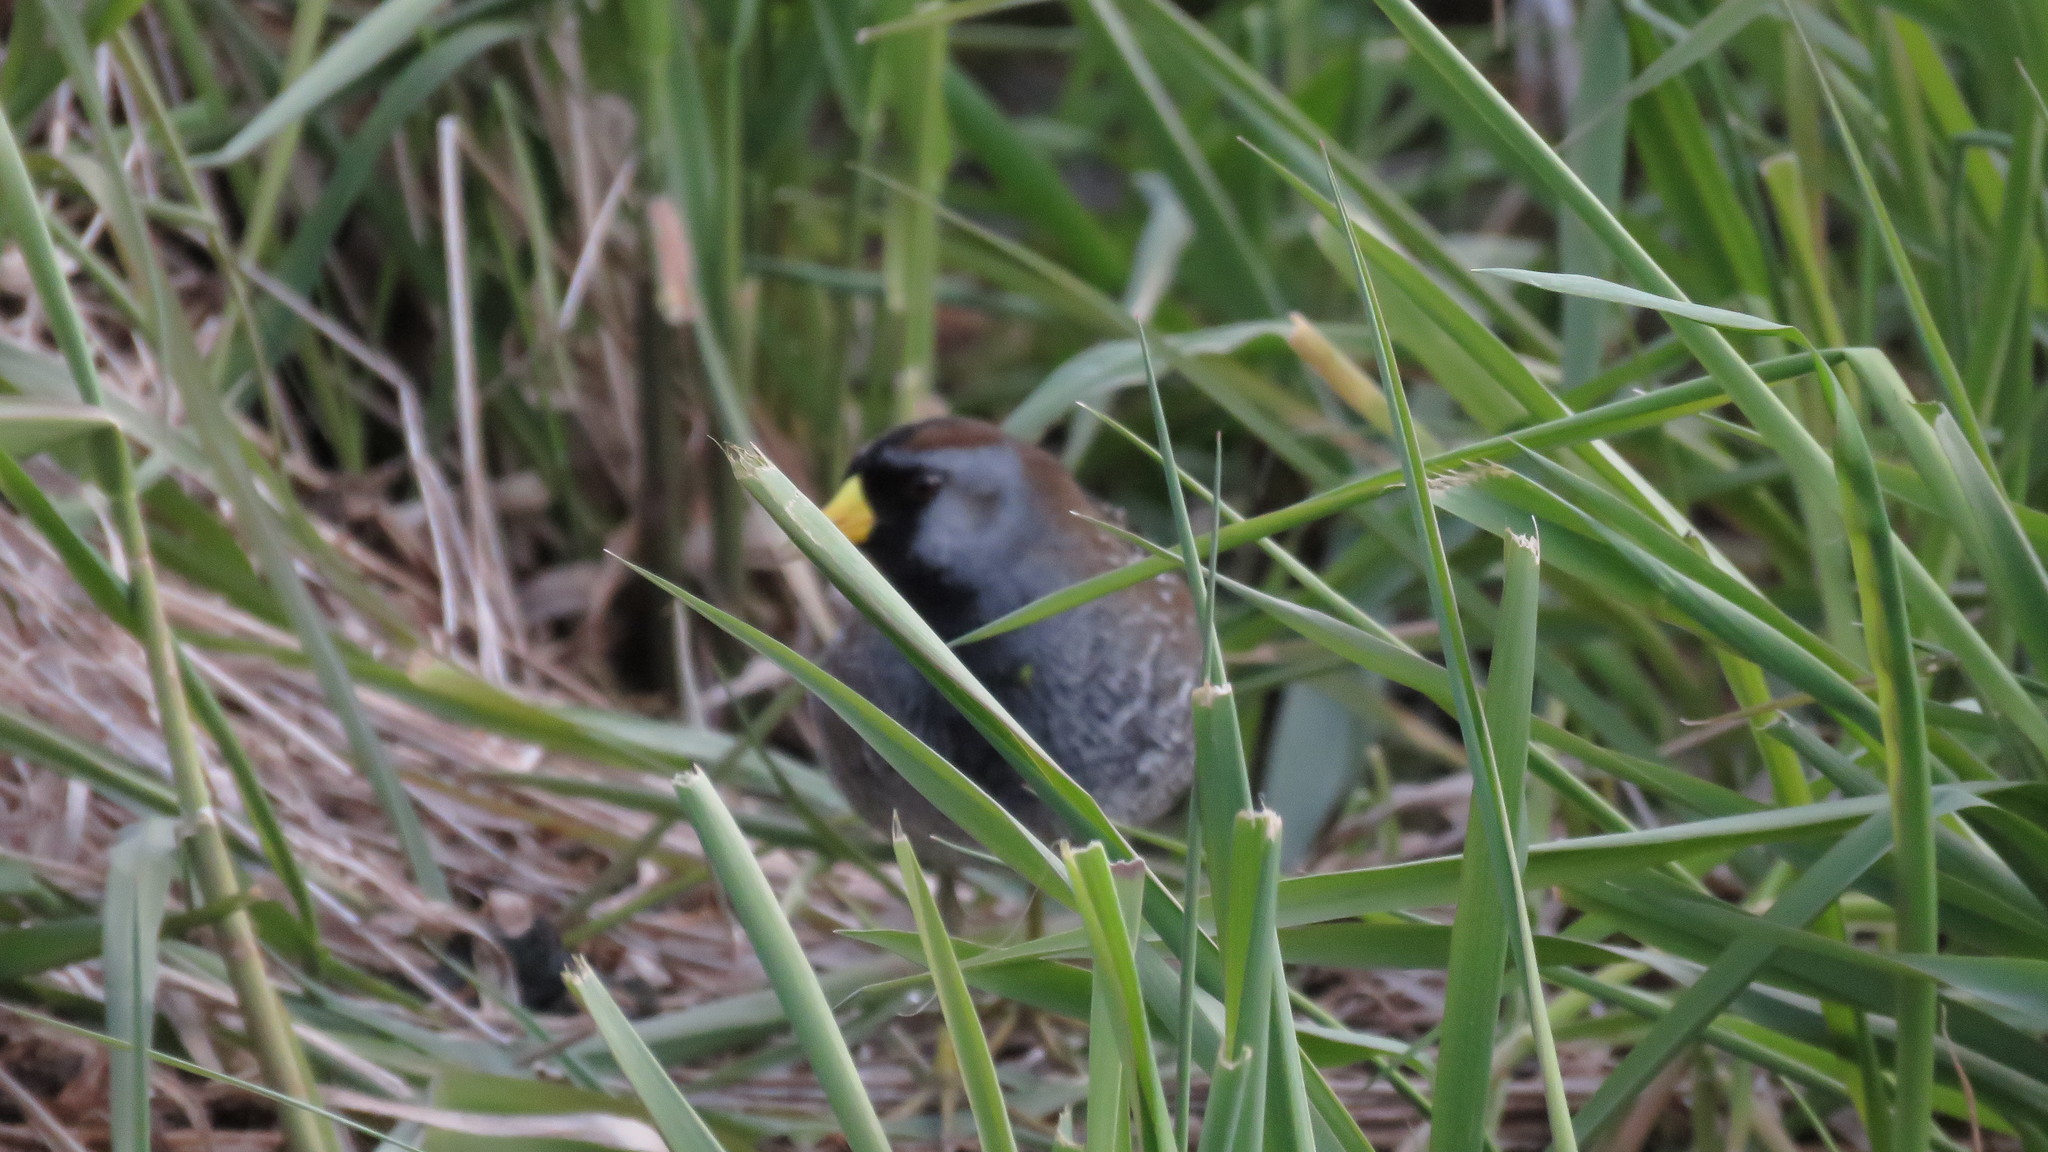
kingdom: Animalia
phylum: Chordata
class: Aves
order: Gruiformes
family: Rallidae
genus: Porzana
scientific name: Porzana carolina
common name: Sora
